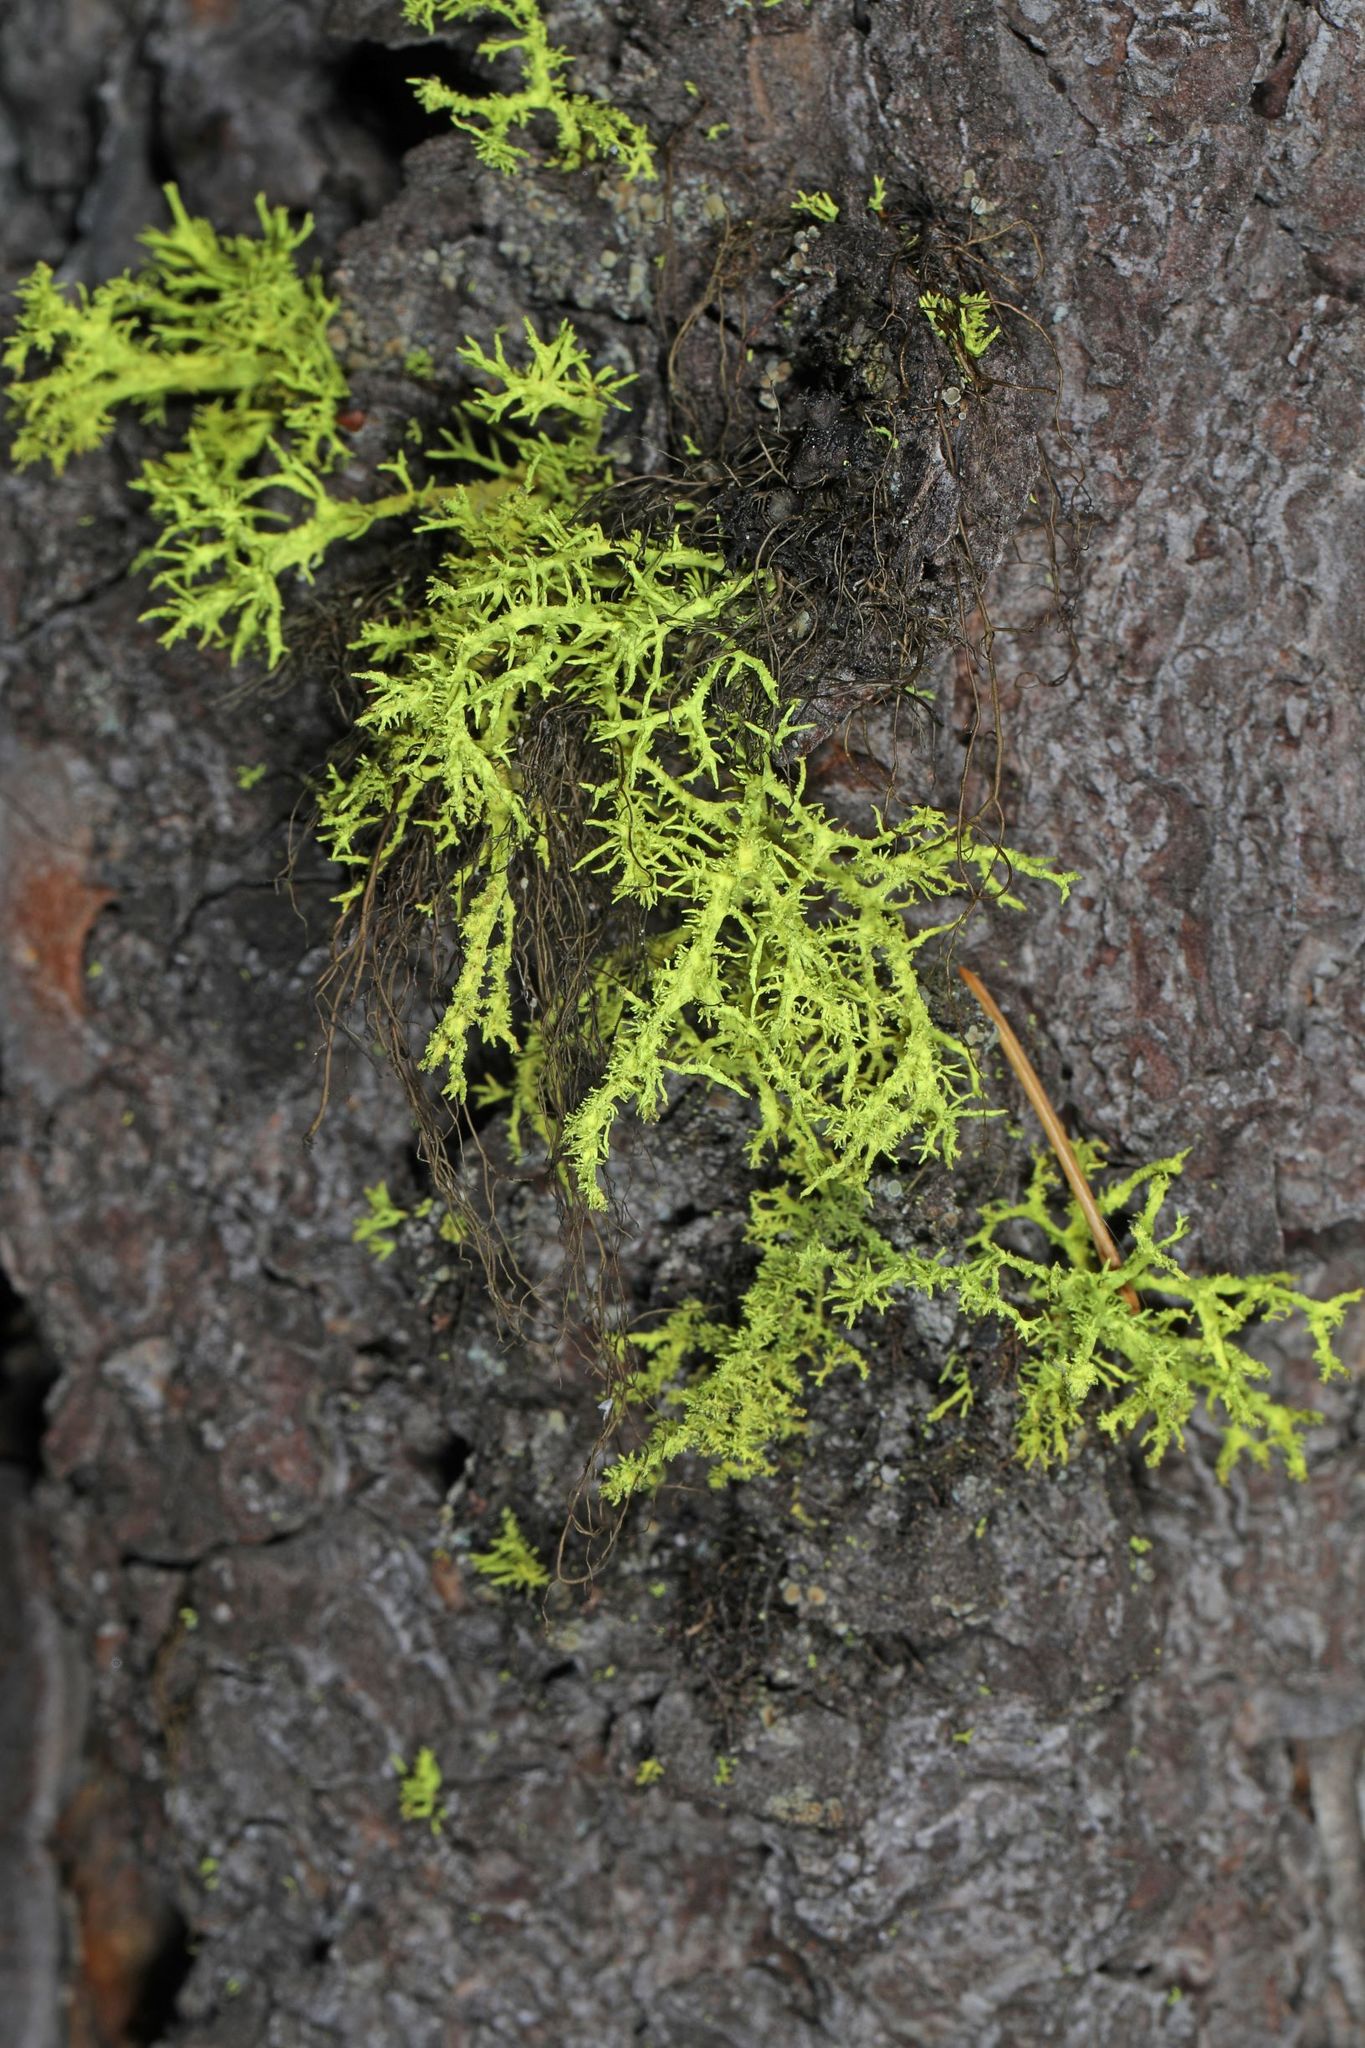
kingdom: Fungi
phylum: Ascomycota
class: Lecanoromycetes
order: Lecanorales
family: Parmeliaceae
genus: Letharia
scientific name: Letharia vulpina
